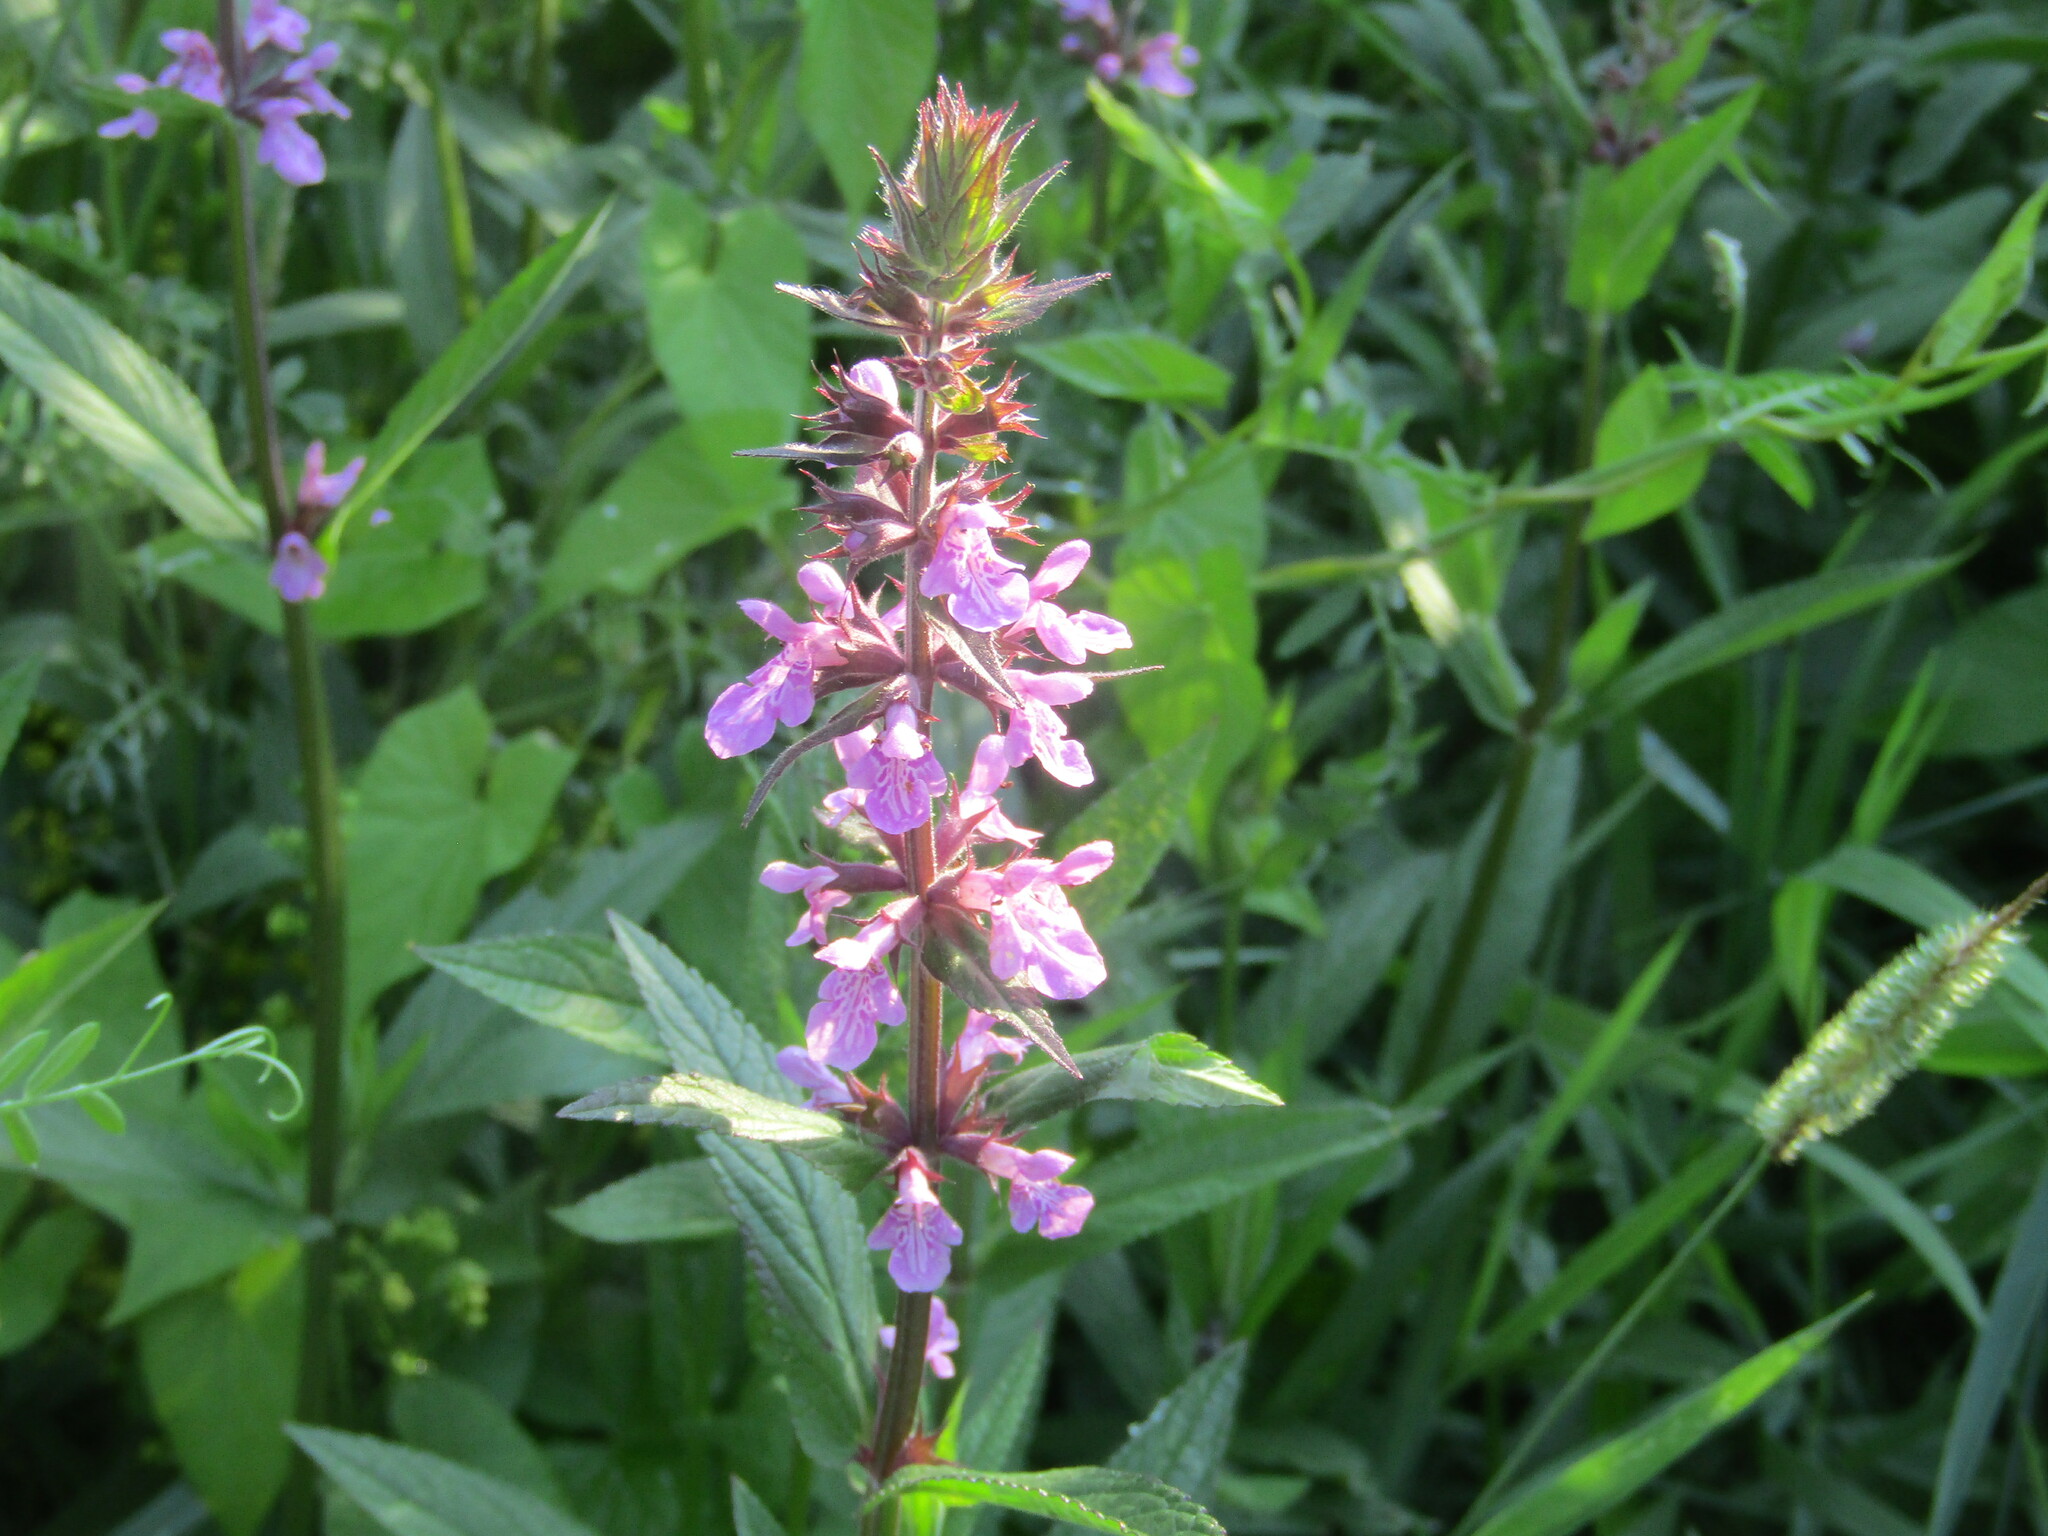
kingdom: Plantae
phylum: Tracheophyta
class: Magnoliopsida
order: Lamiales
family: Lamiaceae
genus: Stachys
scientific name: Stachys palustris
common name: Marsh woundwort
